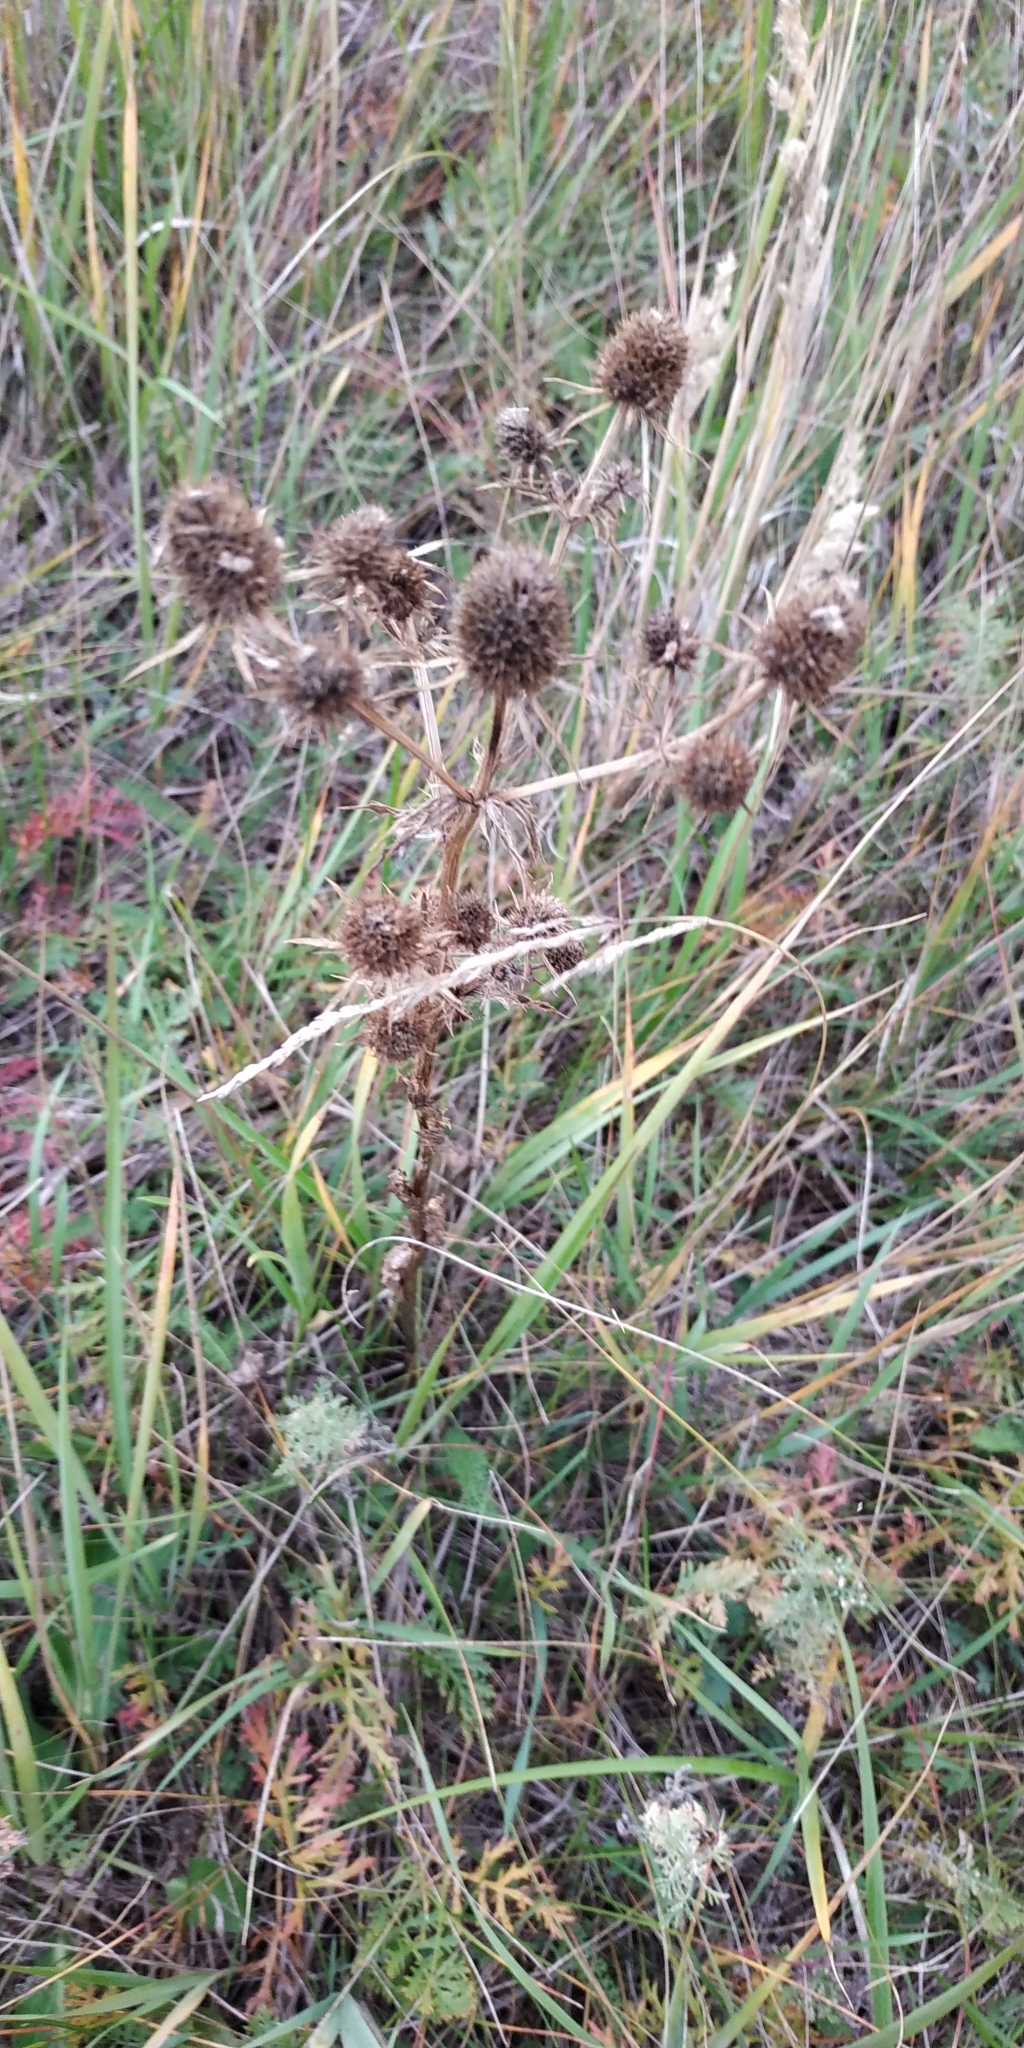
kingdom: Plantae
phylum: Tracheophyta
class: Magnoliopsida
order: Apiales
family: Apiaceae
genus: Eryngium
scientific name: Eryngium planum
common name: Blue eryngo
